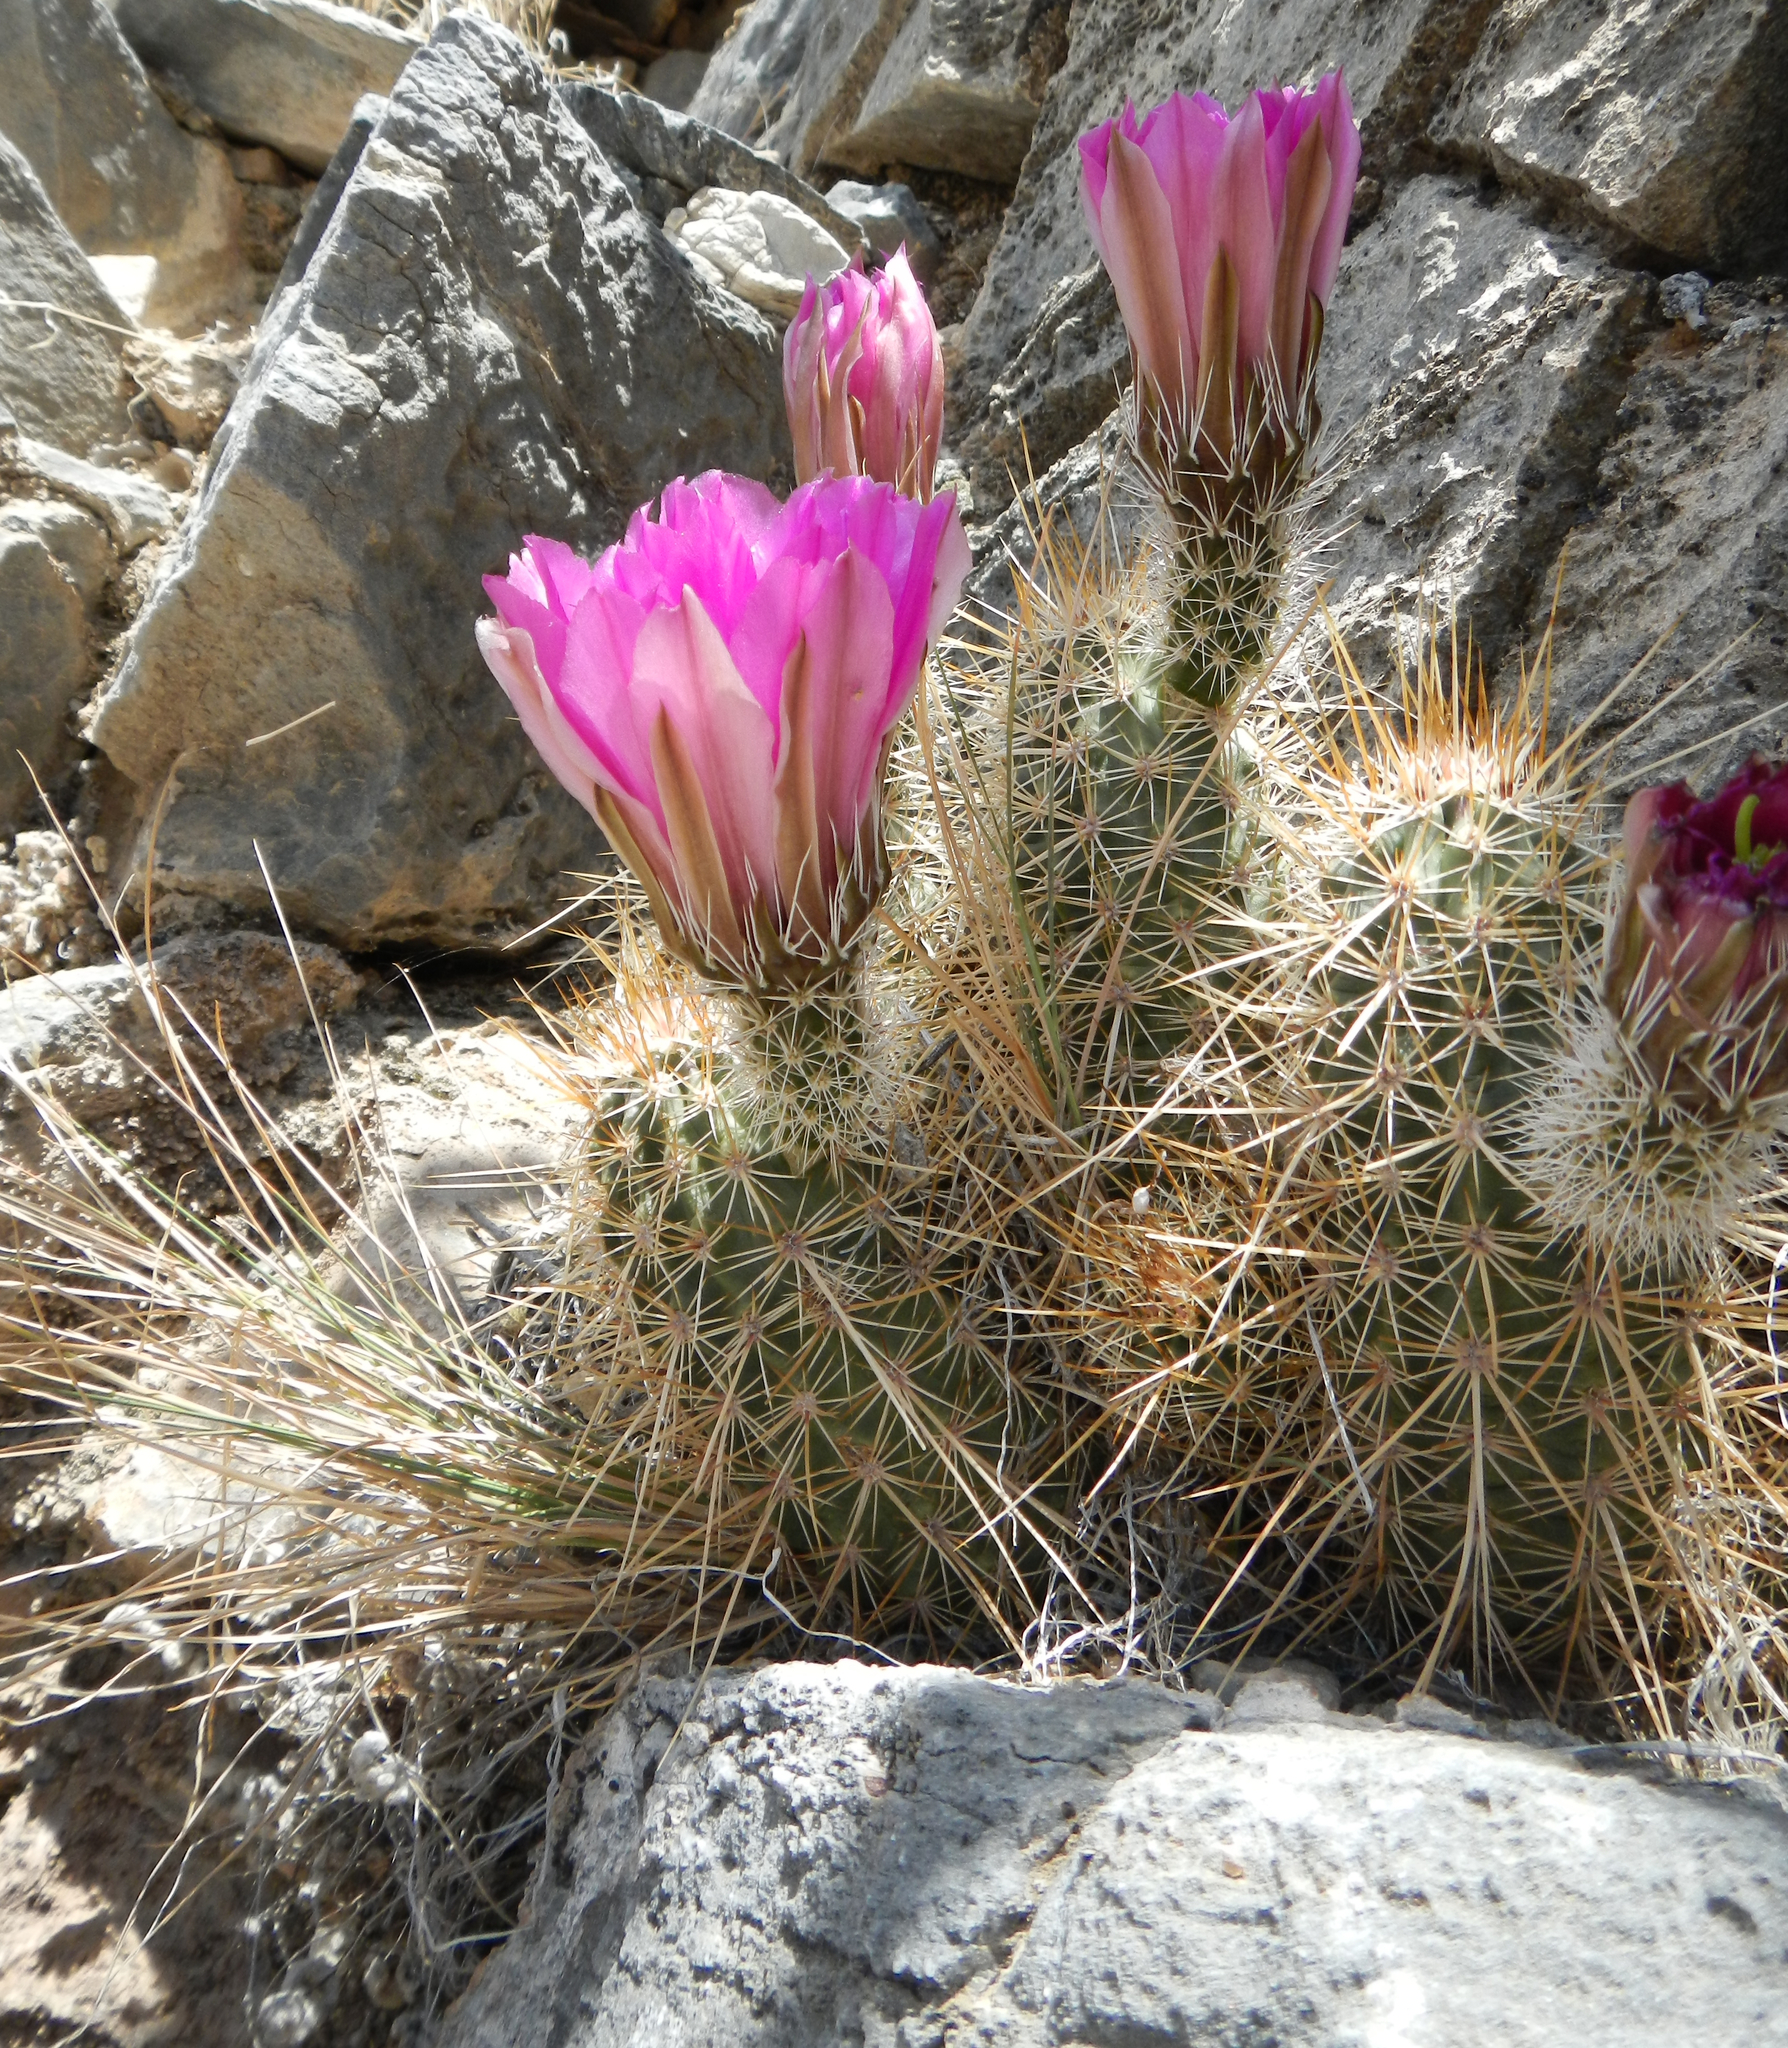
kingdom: Plantae
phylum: Tracheophyta
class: Magnoliopsida
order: Caryophyllales
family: Cactaceae
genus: Echinocereus
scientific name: Echinocereus engelmannii
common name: Engelmann's hedgehog cactus
